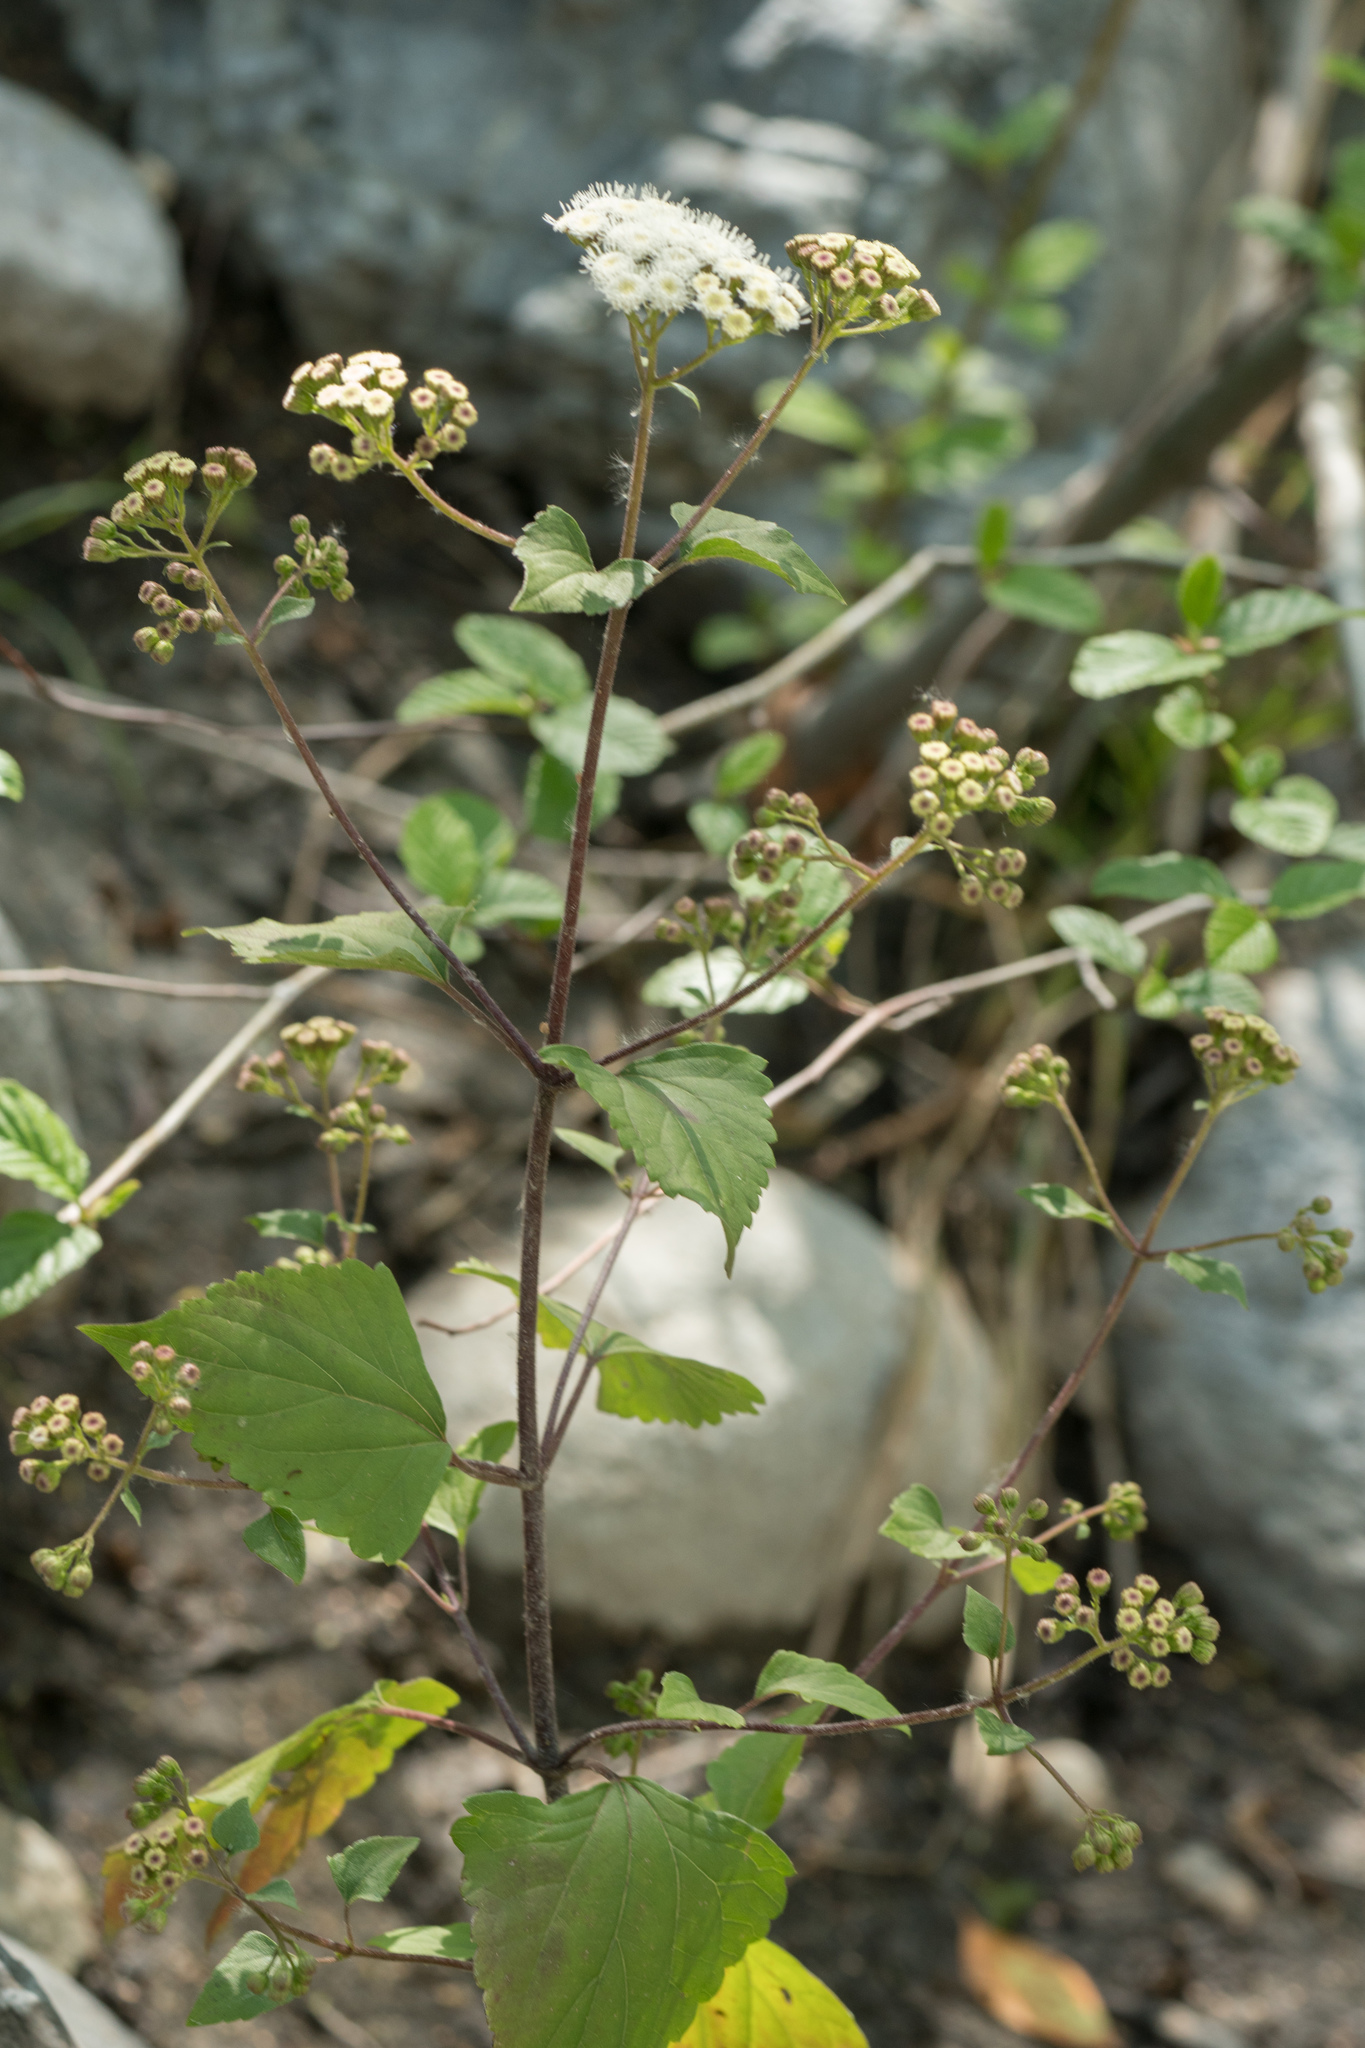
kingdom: Plantae
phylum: Tracheophyta
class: Magnoliopsida
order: Asterales
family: Asteraceae
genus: Ageratina
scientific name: Ageratina adenophora
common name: Sticky snakeroot
